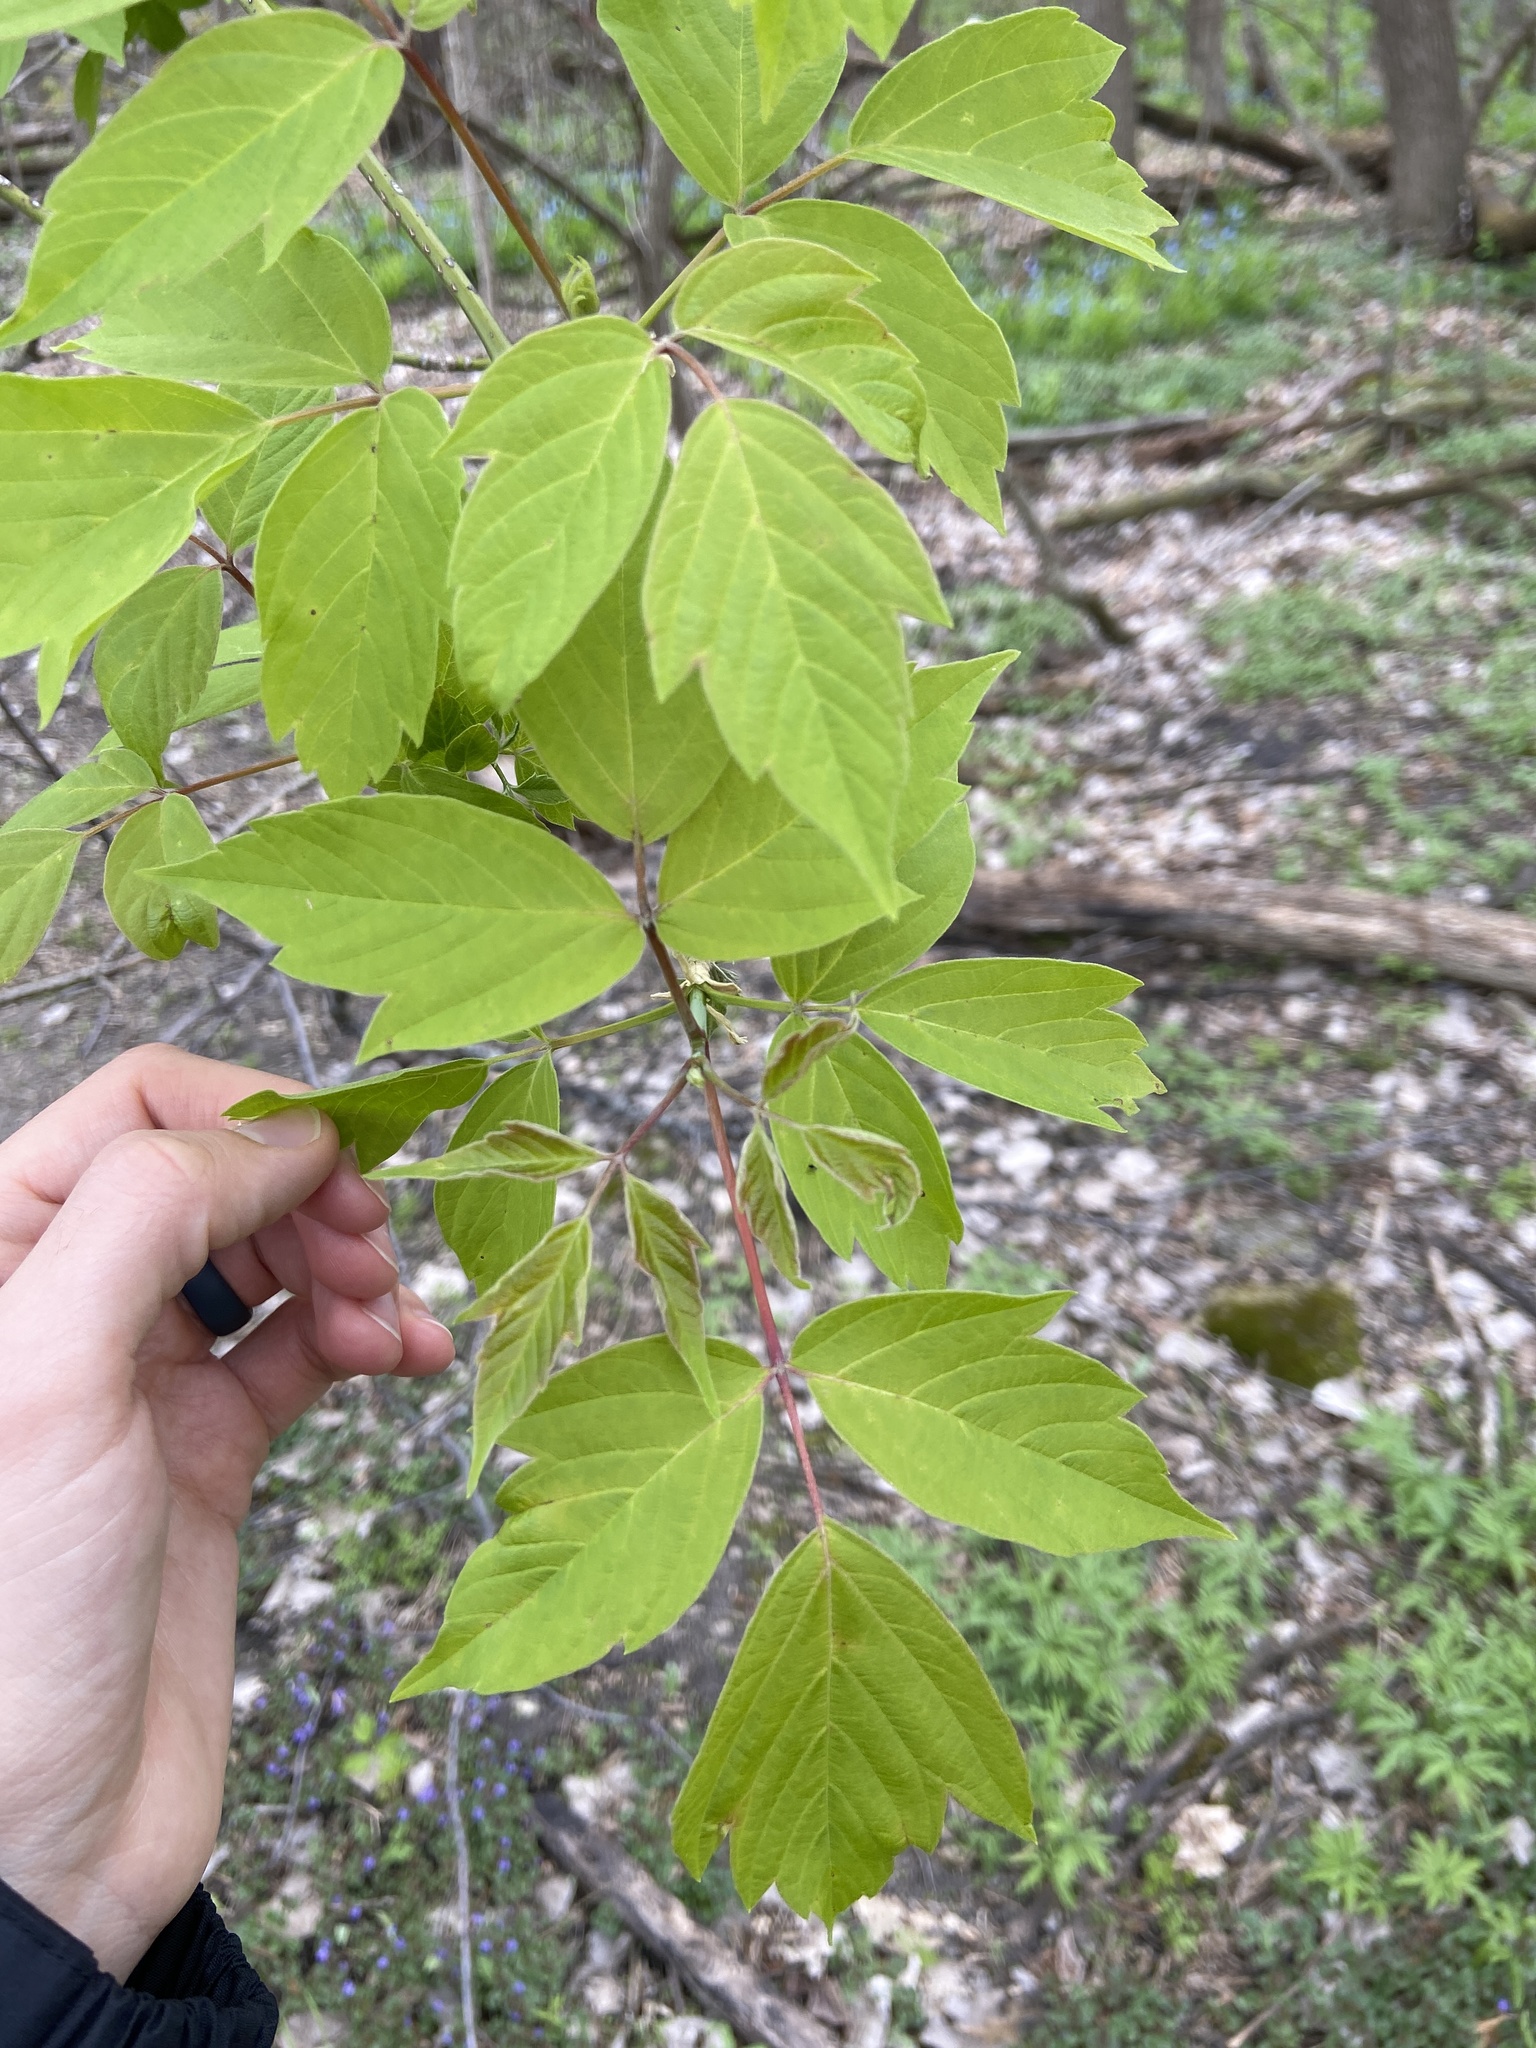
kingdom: Plantae
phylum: Tracheophyta
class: Magnoliopsida
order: Sapindales
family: Sapindaceae
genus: Acer
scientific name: Acer negundo
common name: Ashleaf maple
